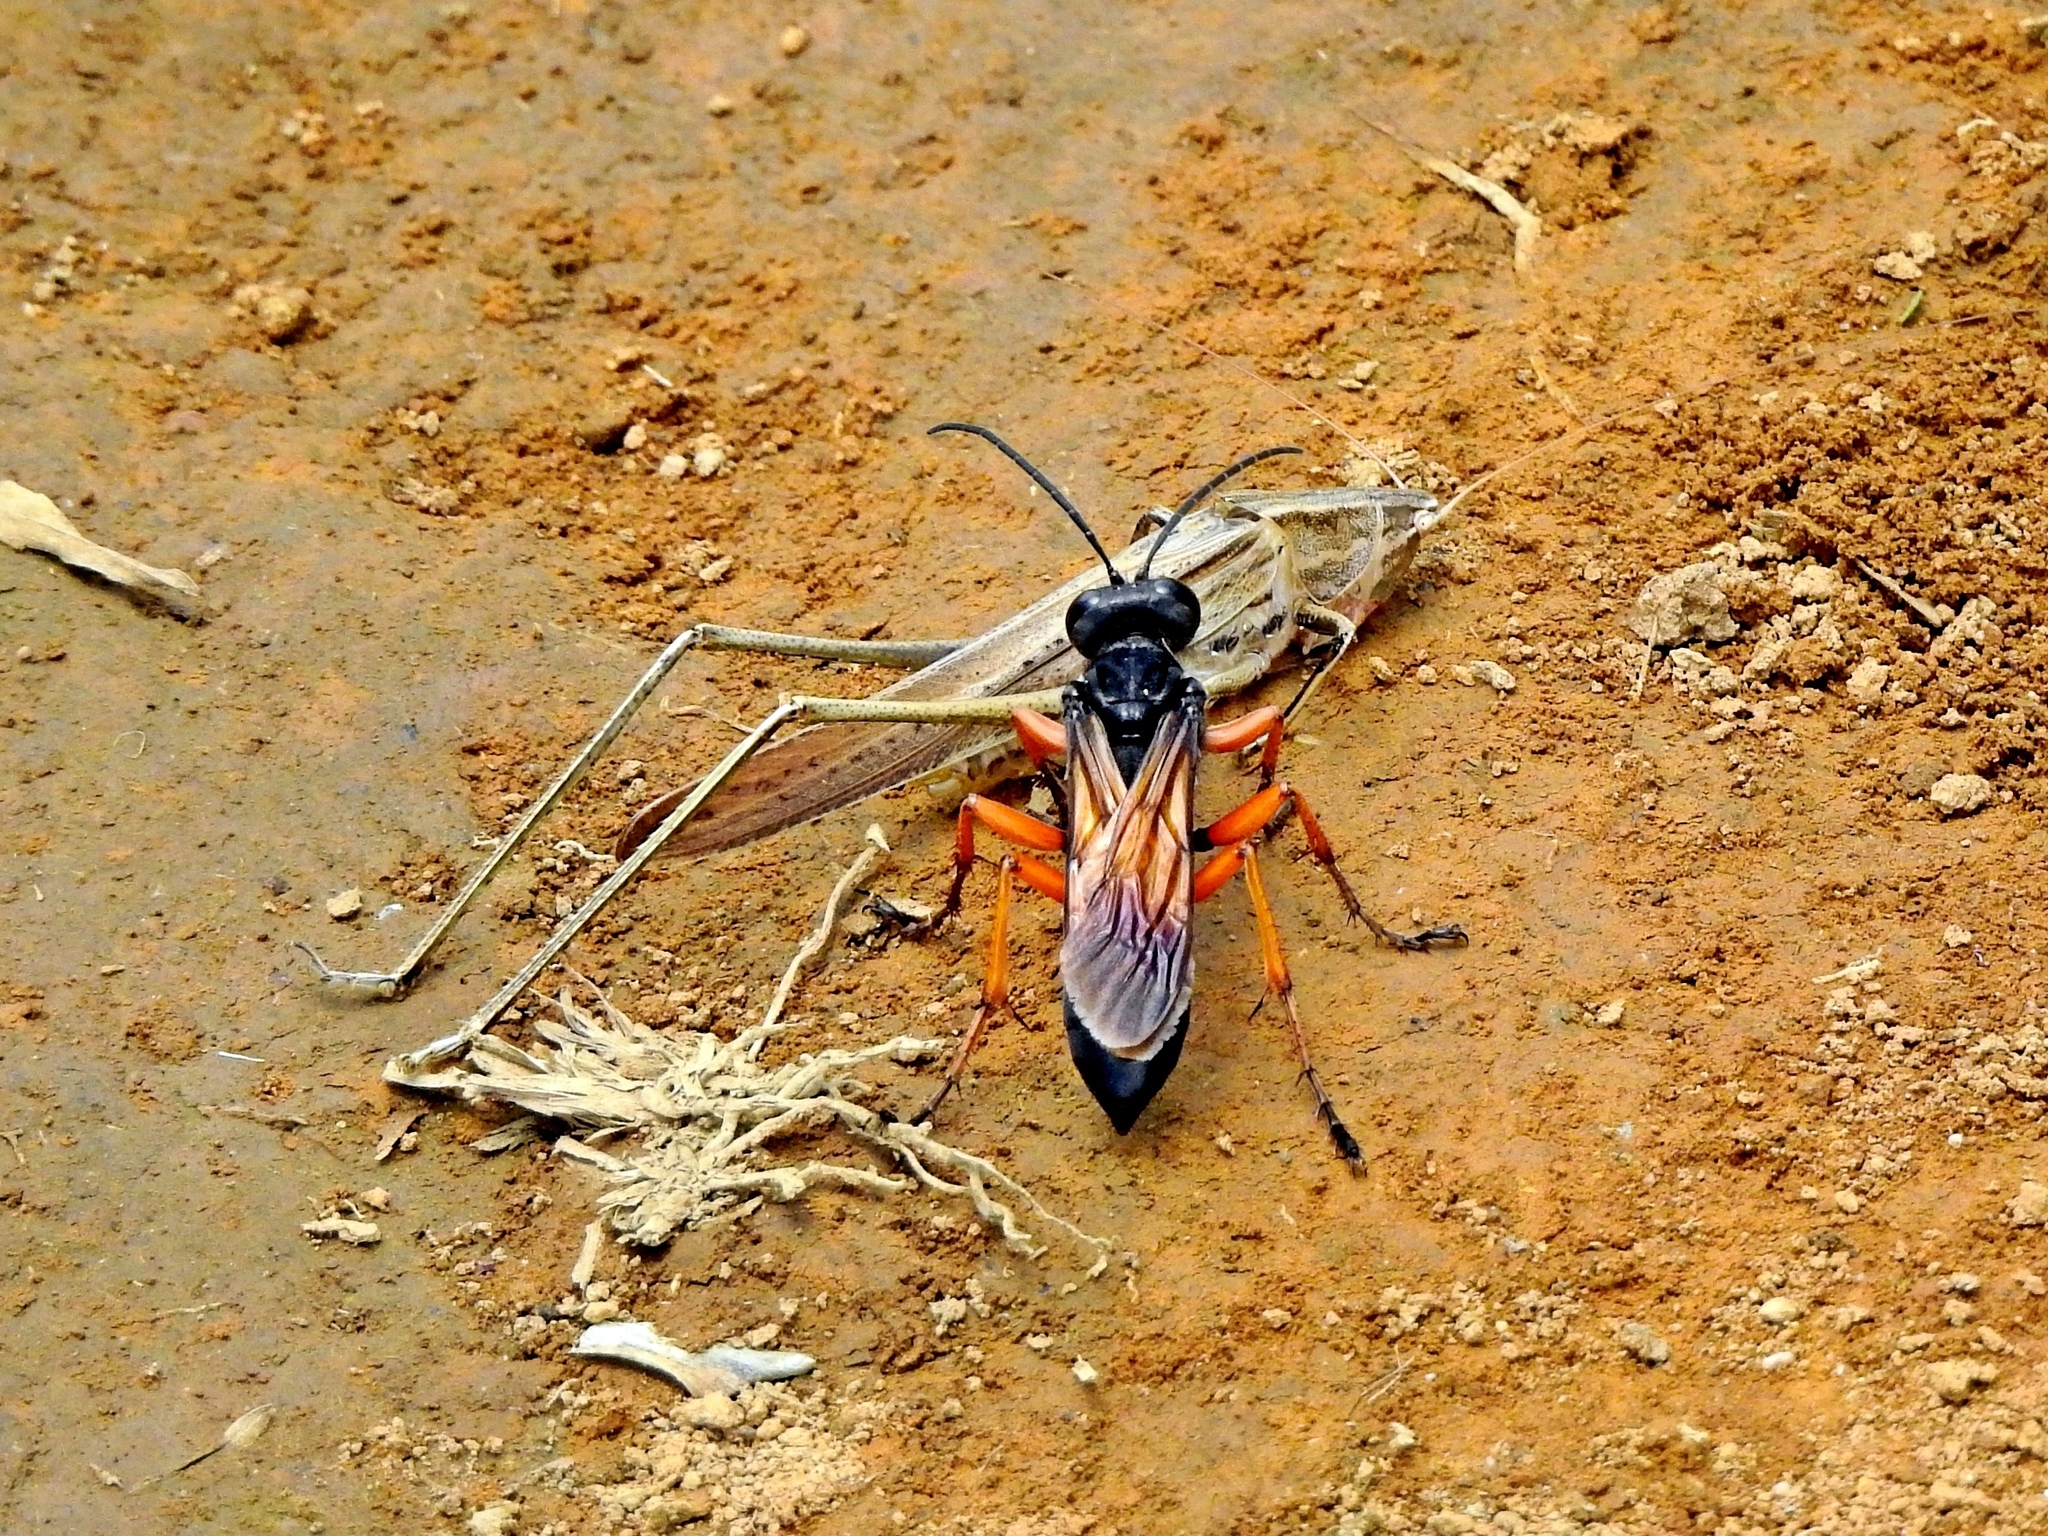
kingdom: Animalia
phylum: Arthropoda
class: Insecta
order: Hymenoptera
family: Sphecidae
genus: Sphex
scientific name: Sphex subtruncatus
